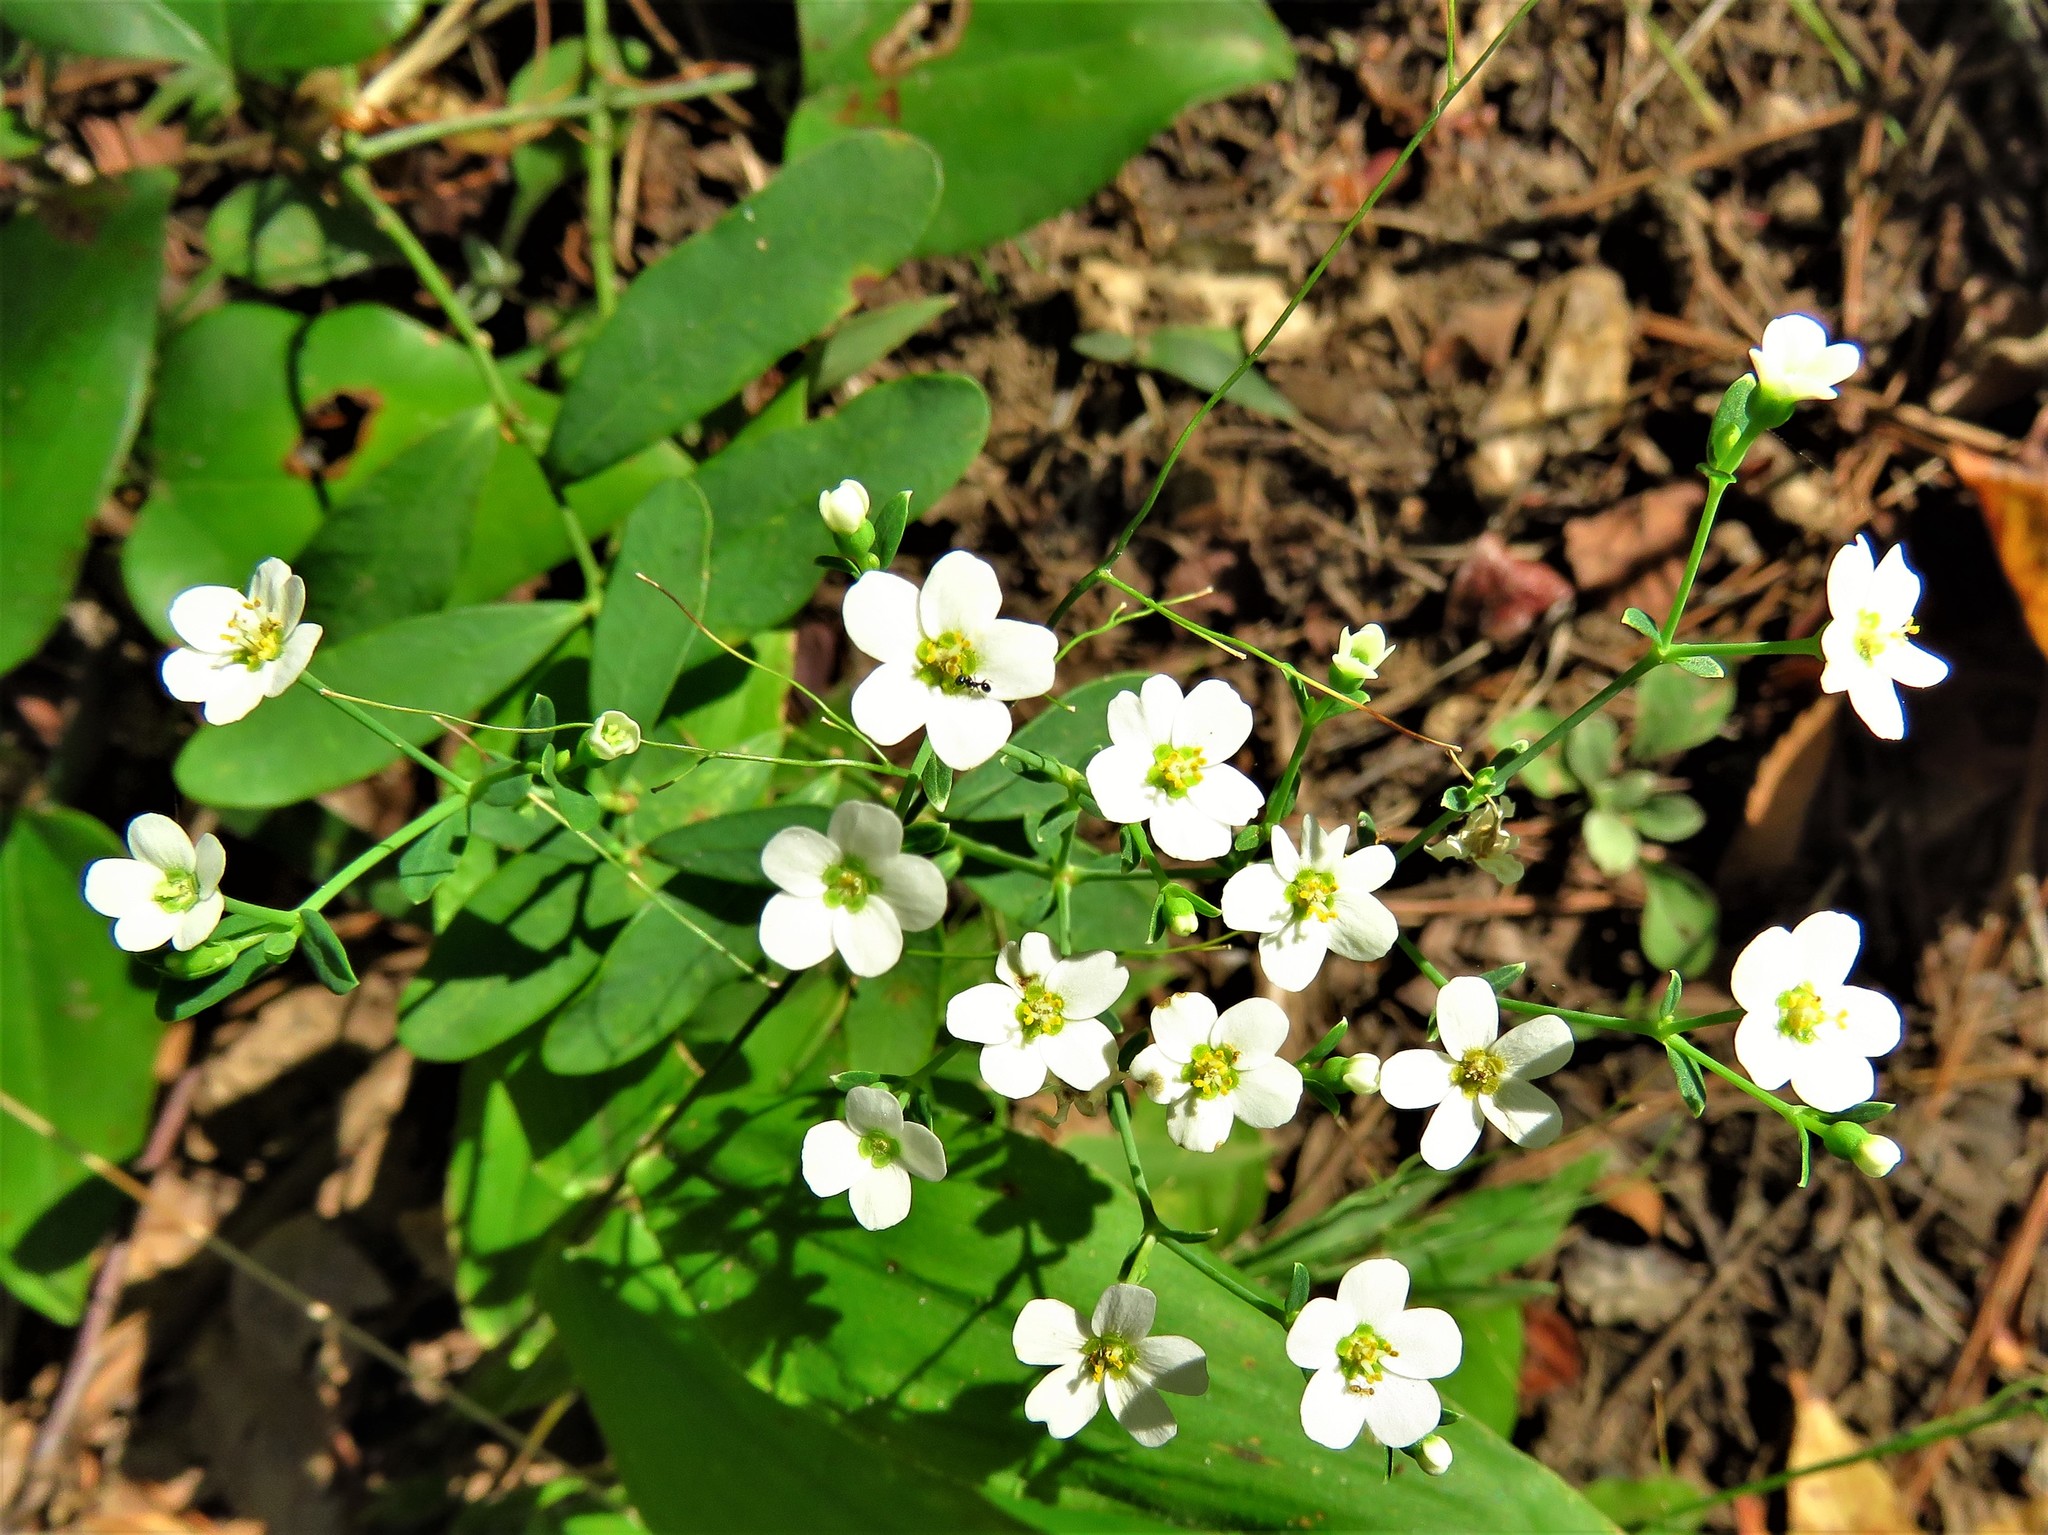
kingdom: Plantae
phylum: Tracheophyta
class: Magnoliopsida
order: Malpighiales
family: Euphorbiaceae
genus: Euphorbia
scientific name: Euphorbia corollata
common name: Flowering spurge
